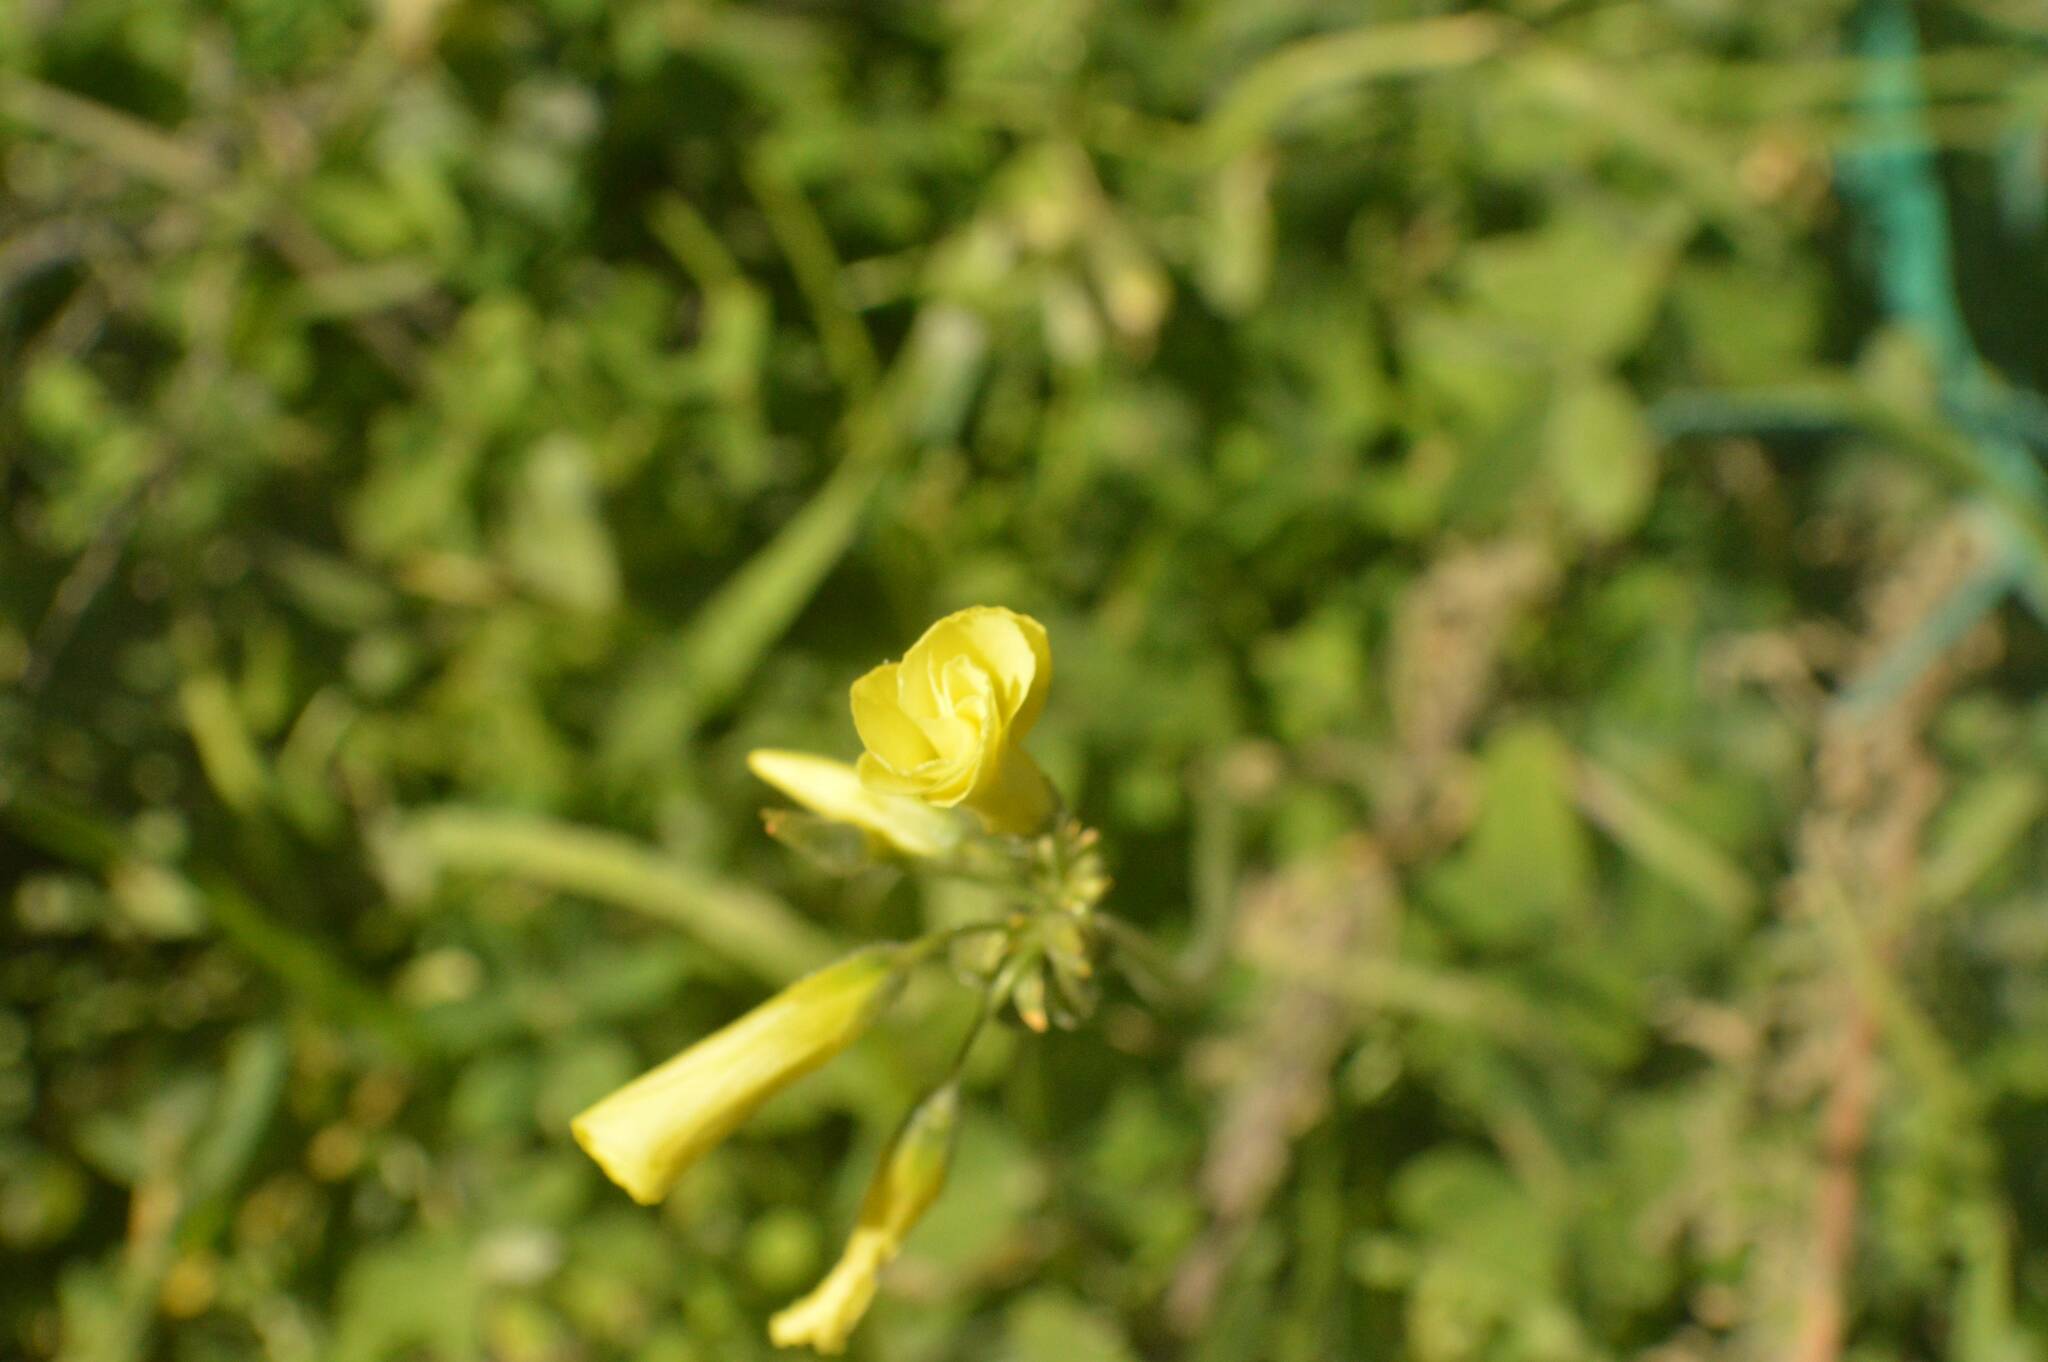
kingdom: Plantae
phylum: Tracheophyta
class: Magnoliopsida
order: Oxalidales
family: Oxalidaceae
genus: Oxalis
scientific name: Oxalis pes-caprae
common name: Bermuda-buttercup
